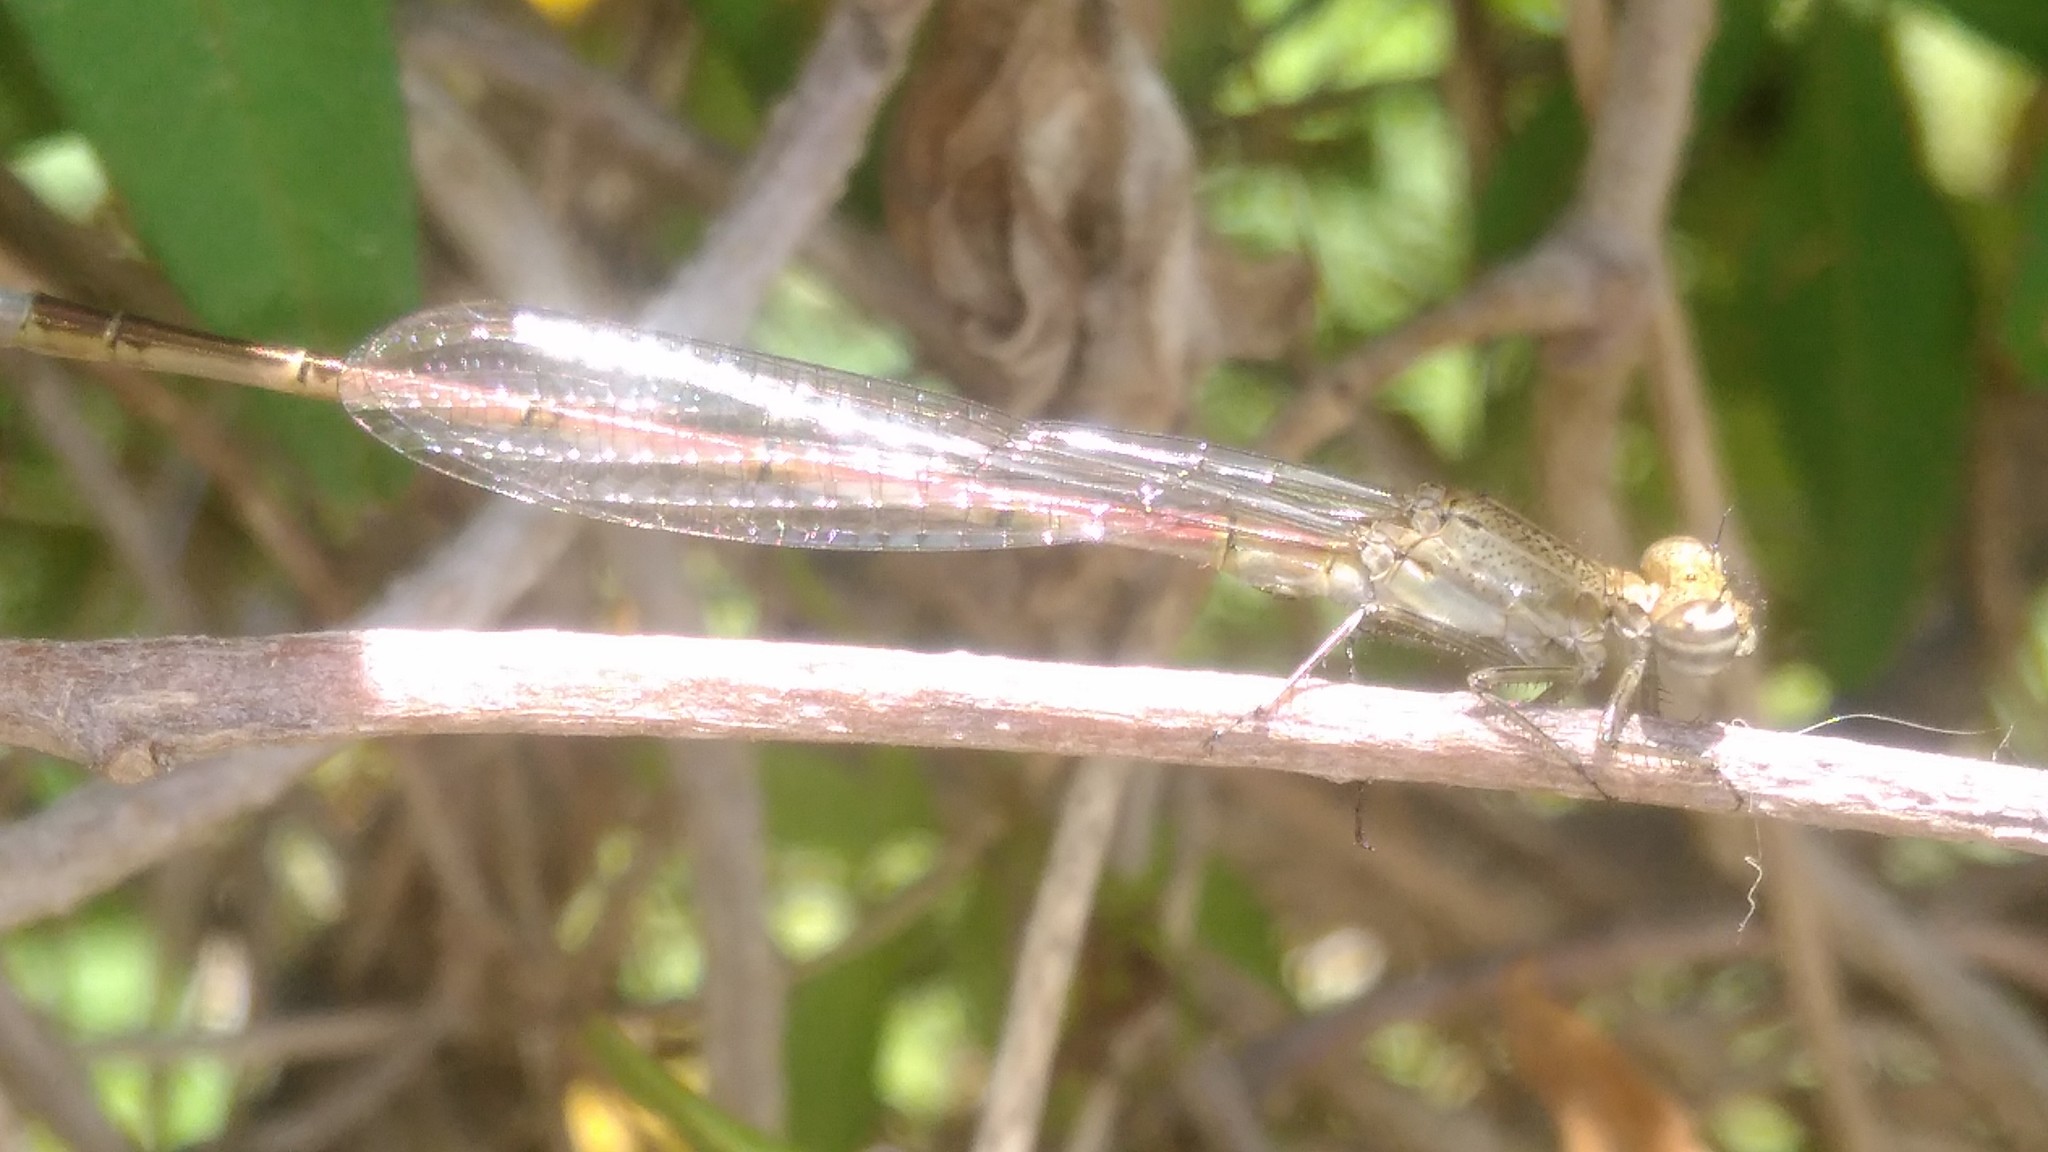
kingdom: Animalia
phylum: Arthropoda
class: Insecta
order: Odonata
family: Coenagrionidae
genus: Oxyagrion
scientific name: Oxyagrion terminale
